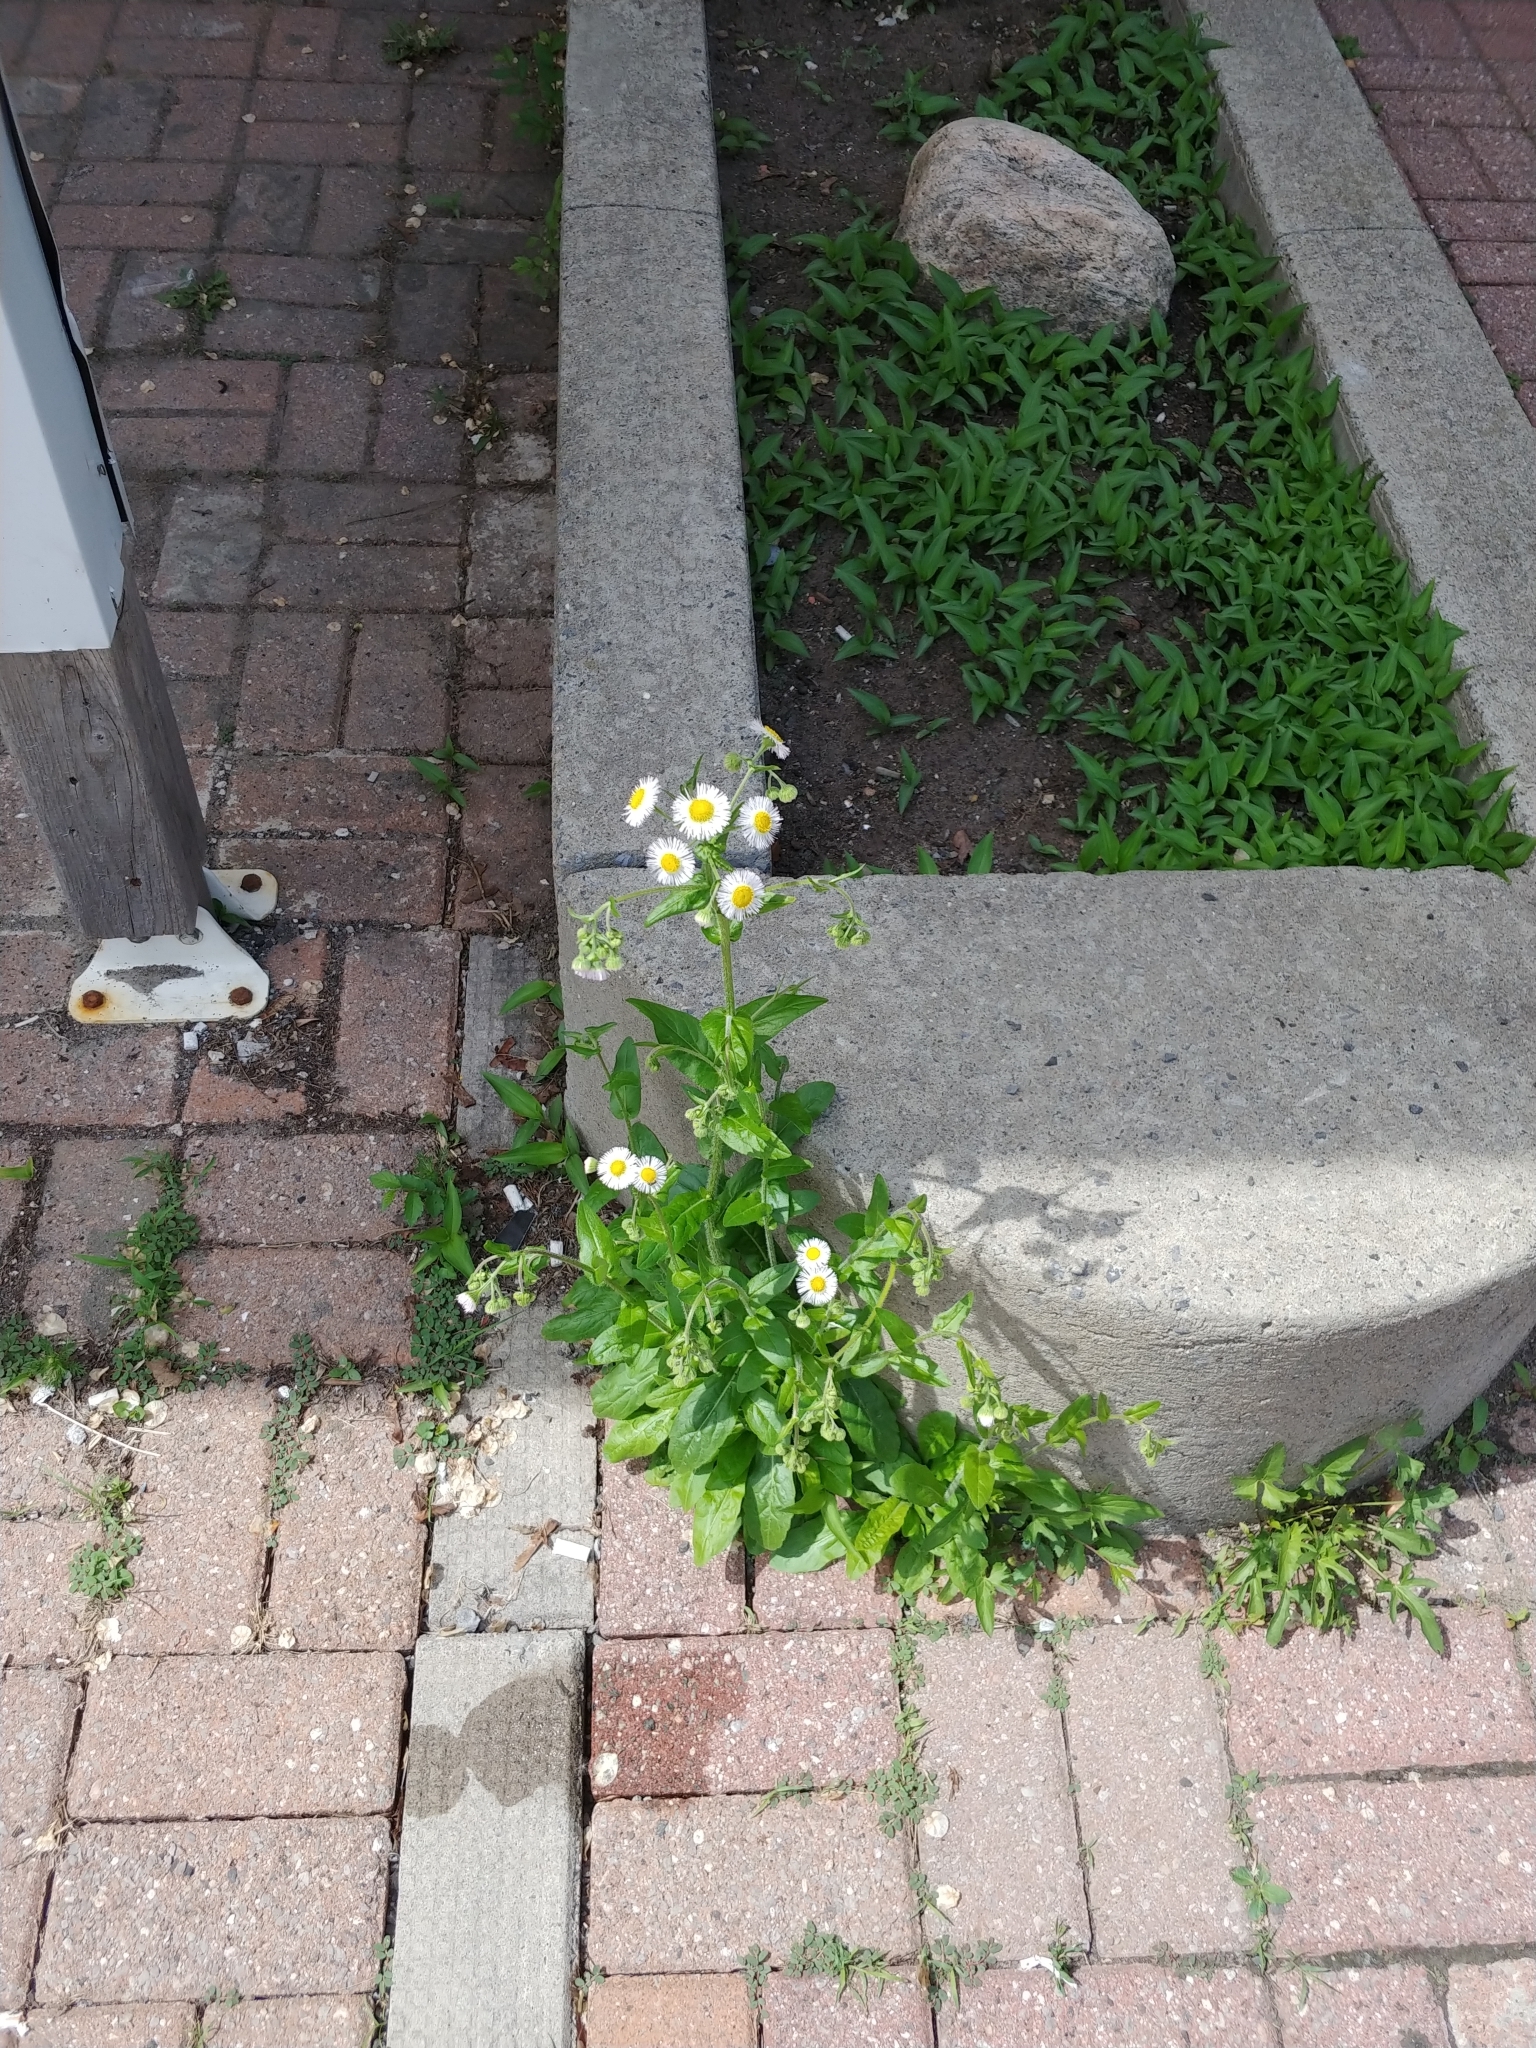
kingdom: Plantae
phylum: Tracheophyta
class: Magnoliopsida
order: Asterales
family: Asteraceae
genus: Erigeron
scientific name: Erigeron philadelphicus
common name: Robin's-plantain
